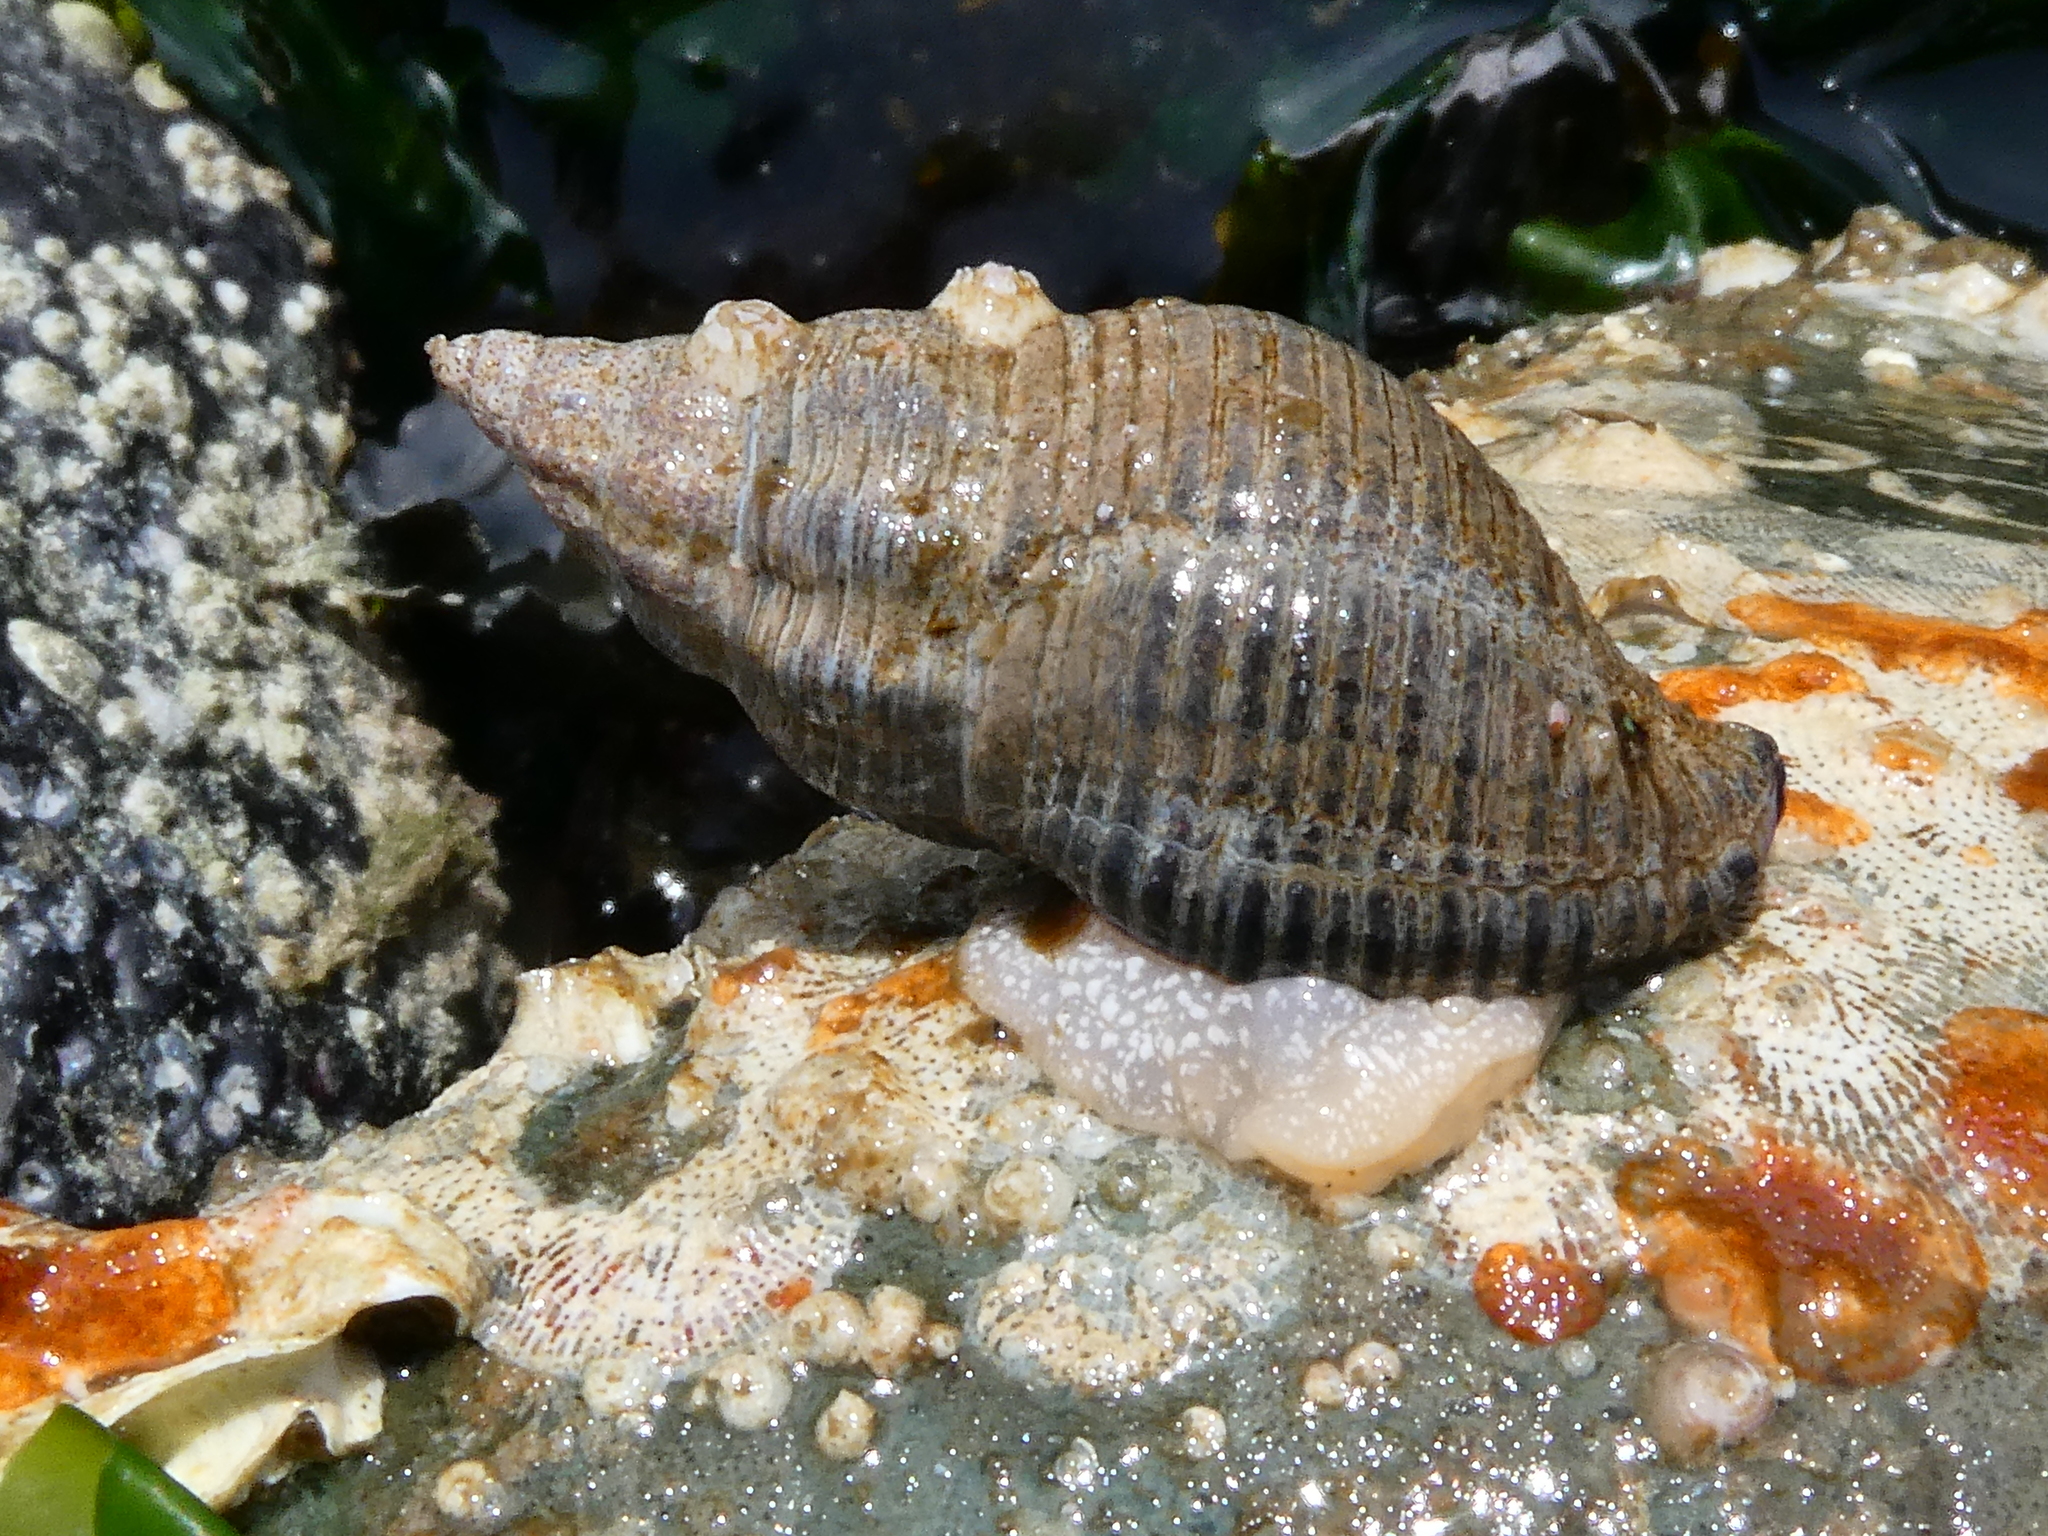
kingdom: Animalia
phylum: Mollusca
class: Gastropoda
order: Neogastropoda
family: Tudiclidae
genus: Lirabuccinum
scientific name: Lirabuccinum dirum
